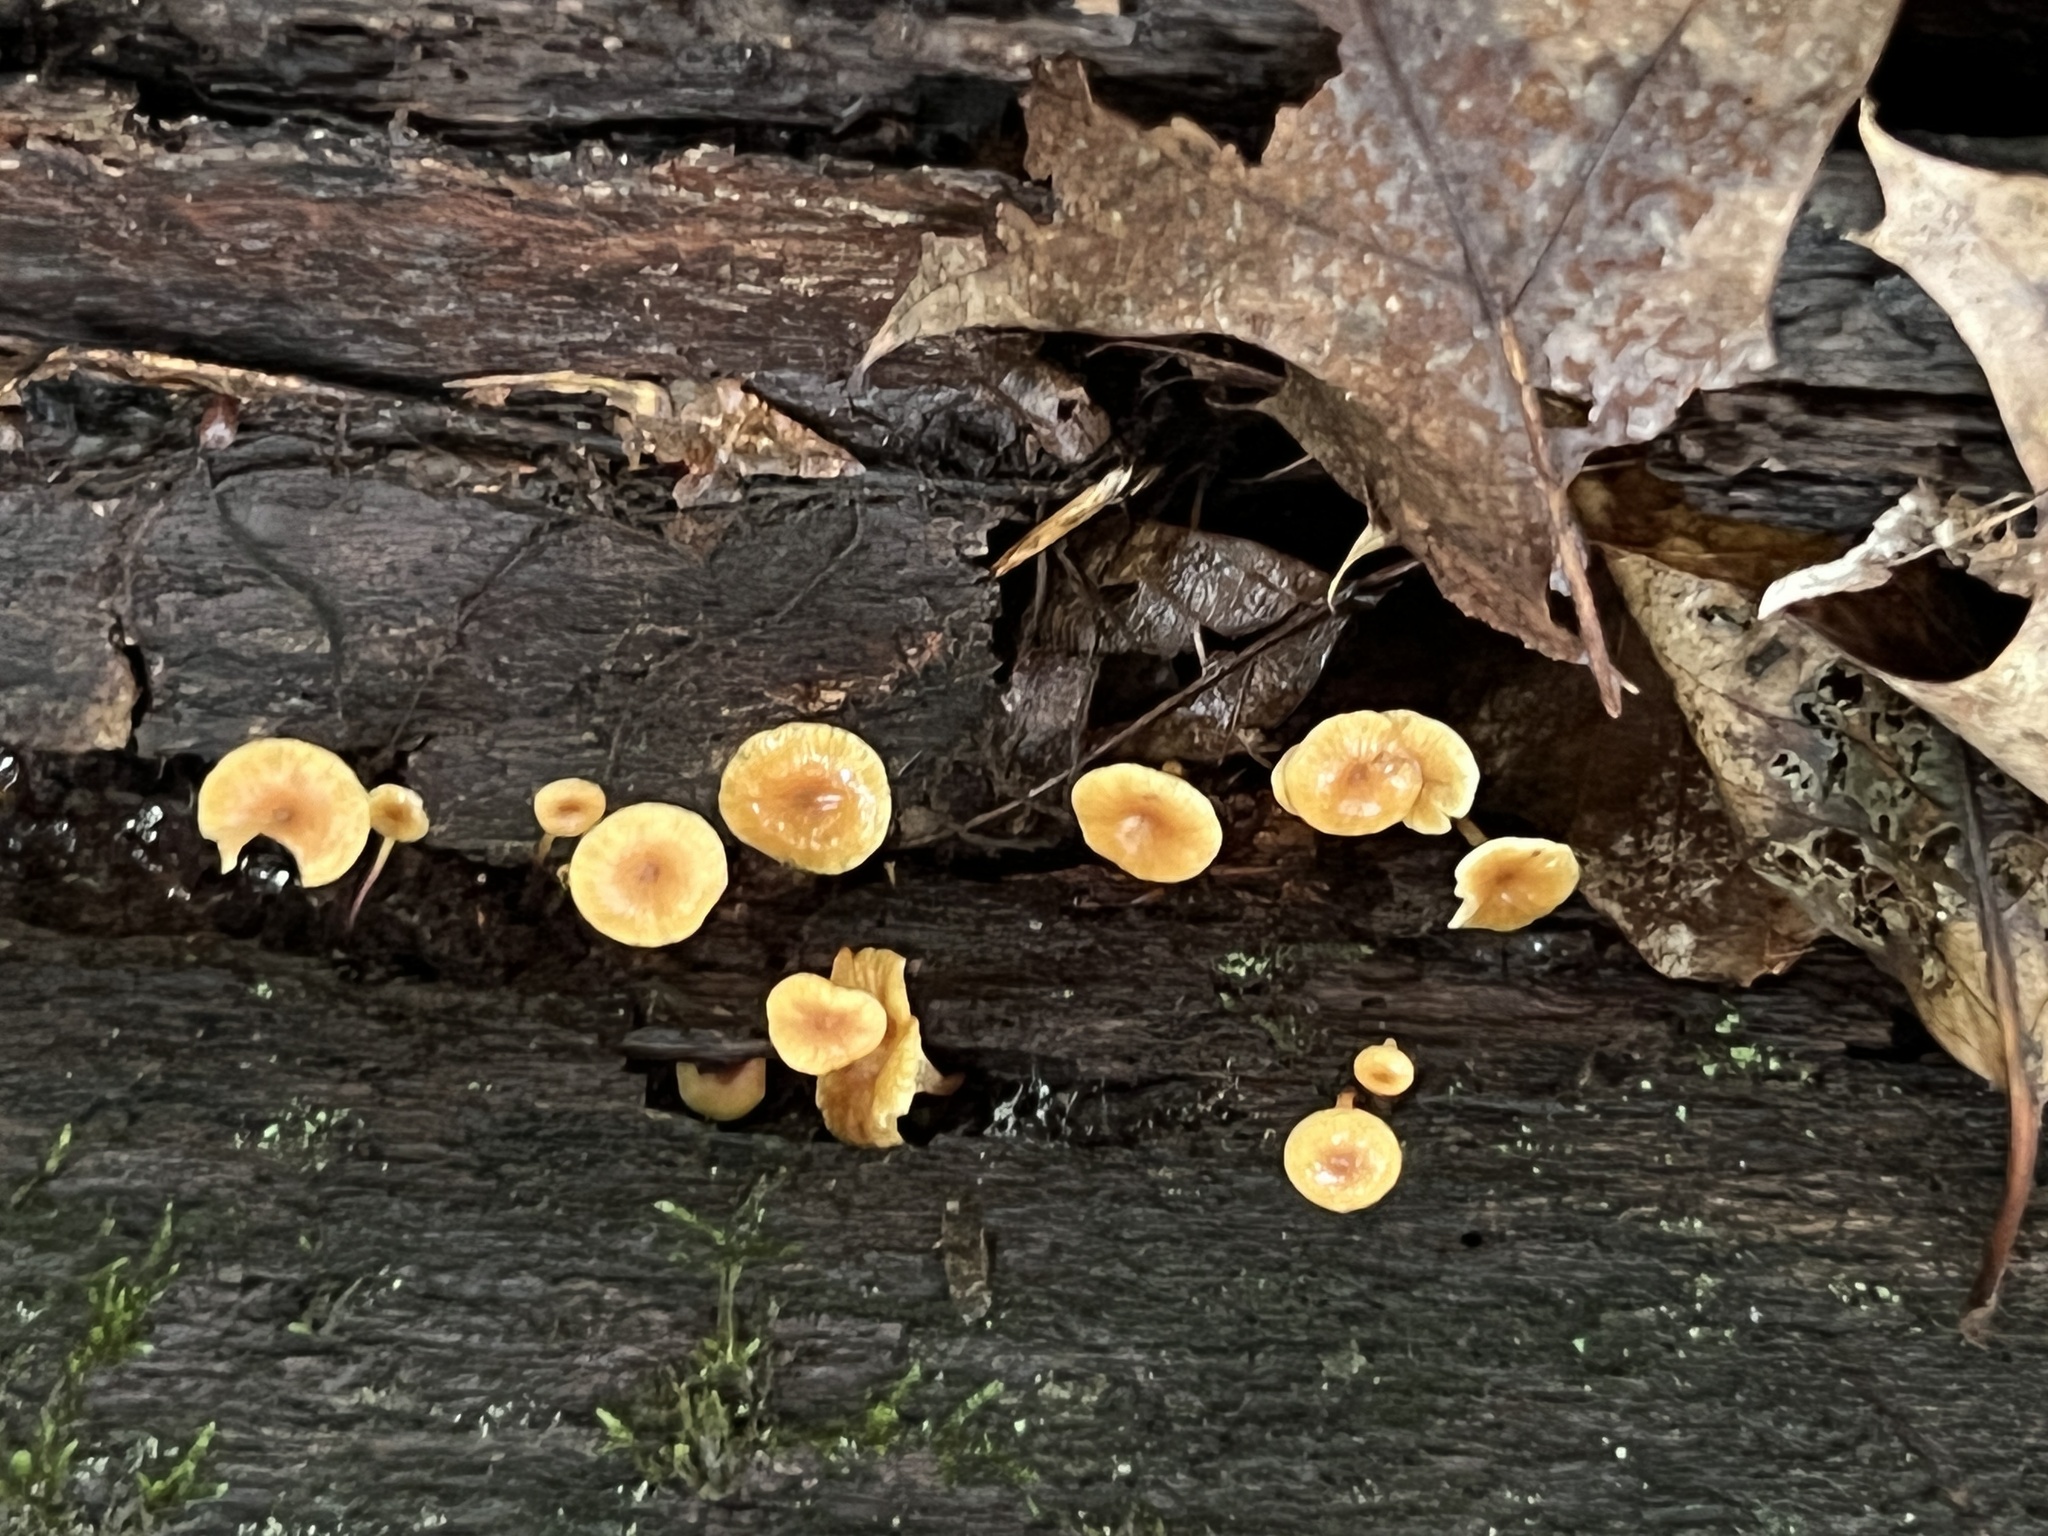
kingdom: Fungi
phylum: Basidiomycota
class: Agaricomycetes
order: Agaricales
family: Mycenaceae
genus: Xeromphalina
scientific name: Xeromphalina kauffmanii
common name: Cross-veined troop mushroom
